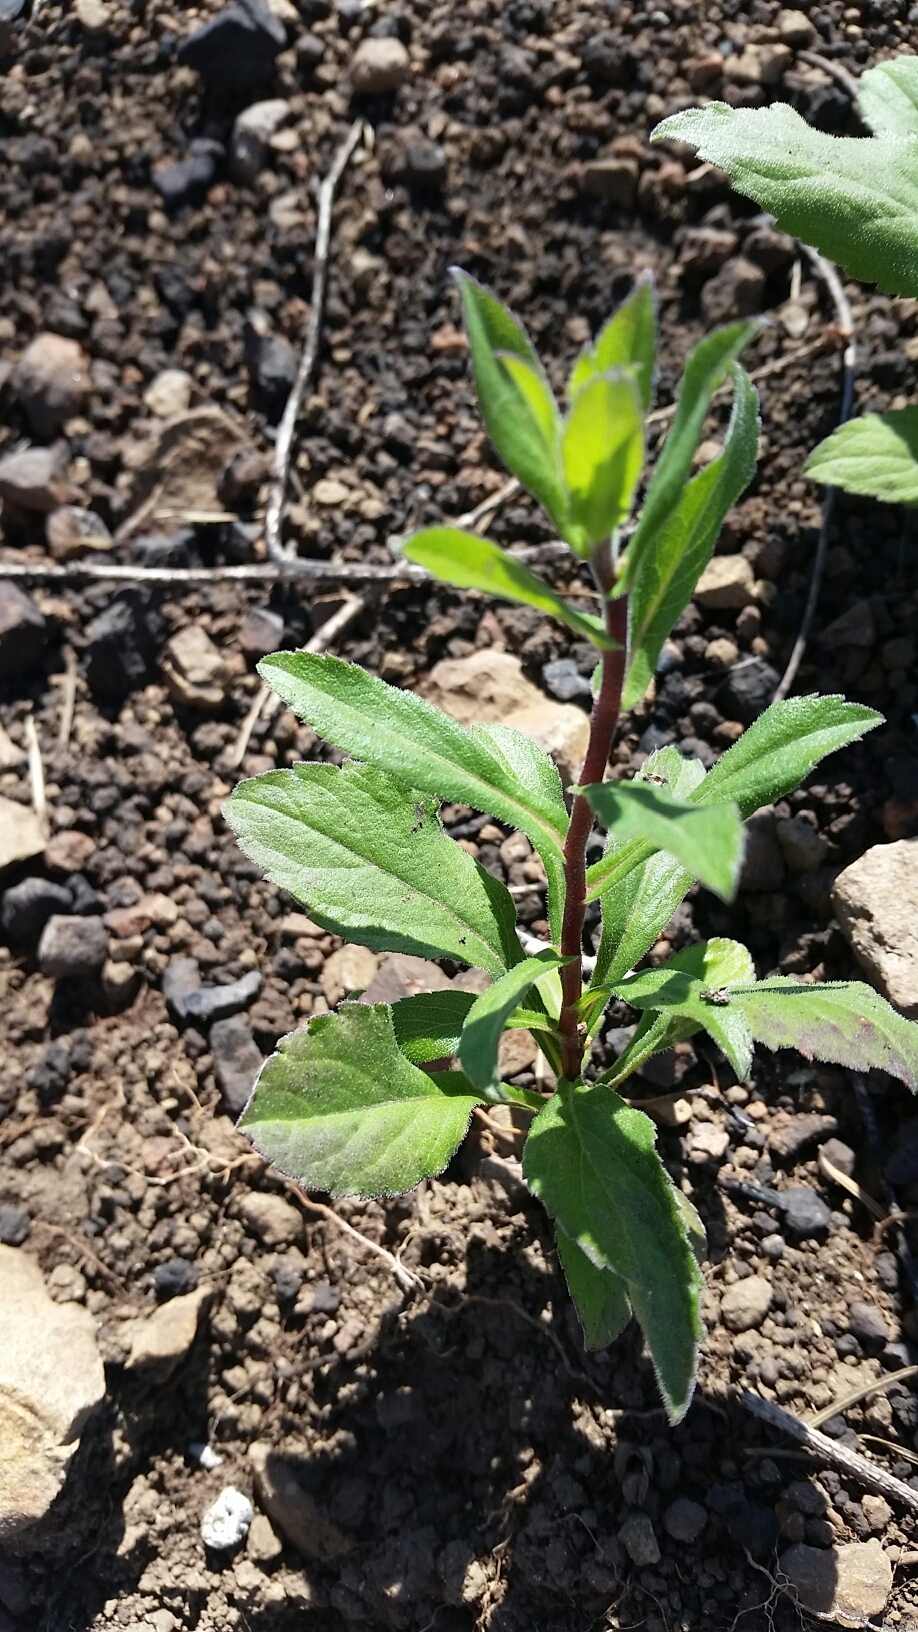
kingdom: Plantae
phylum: Tracheophyta
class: Magnoliopsida
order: Asterales
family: Asteraceae
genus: Eurybia
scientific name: Eurybia radulina
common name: Rough-leaved aster
